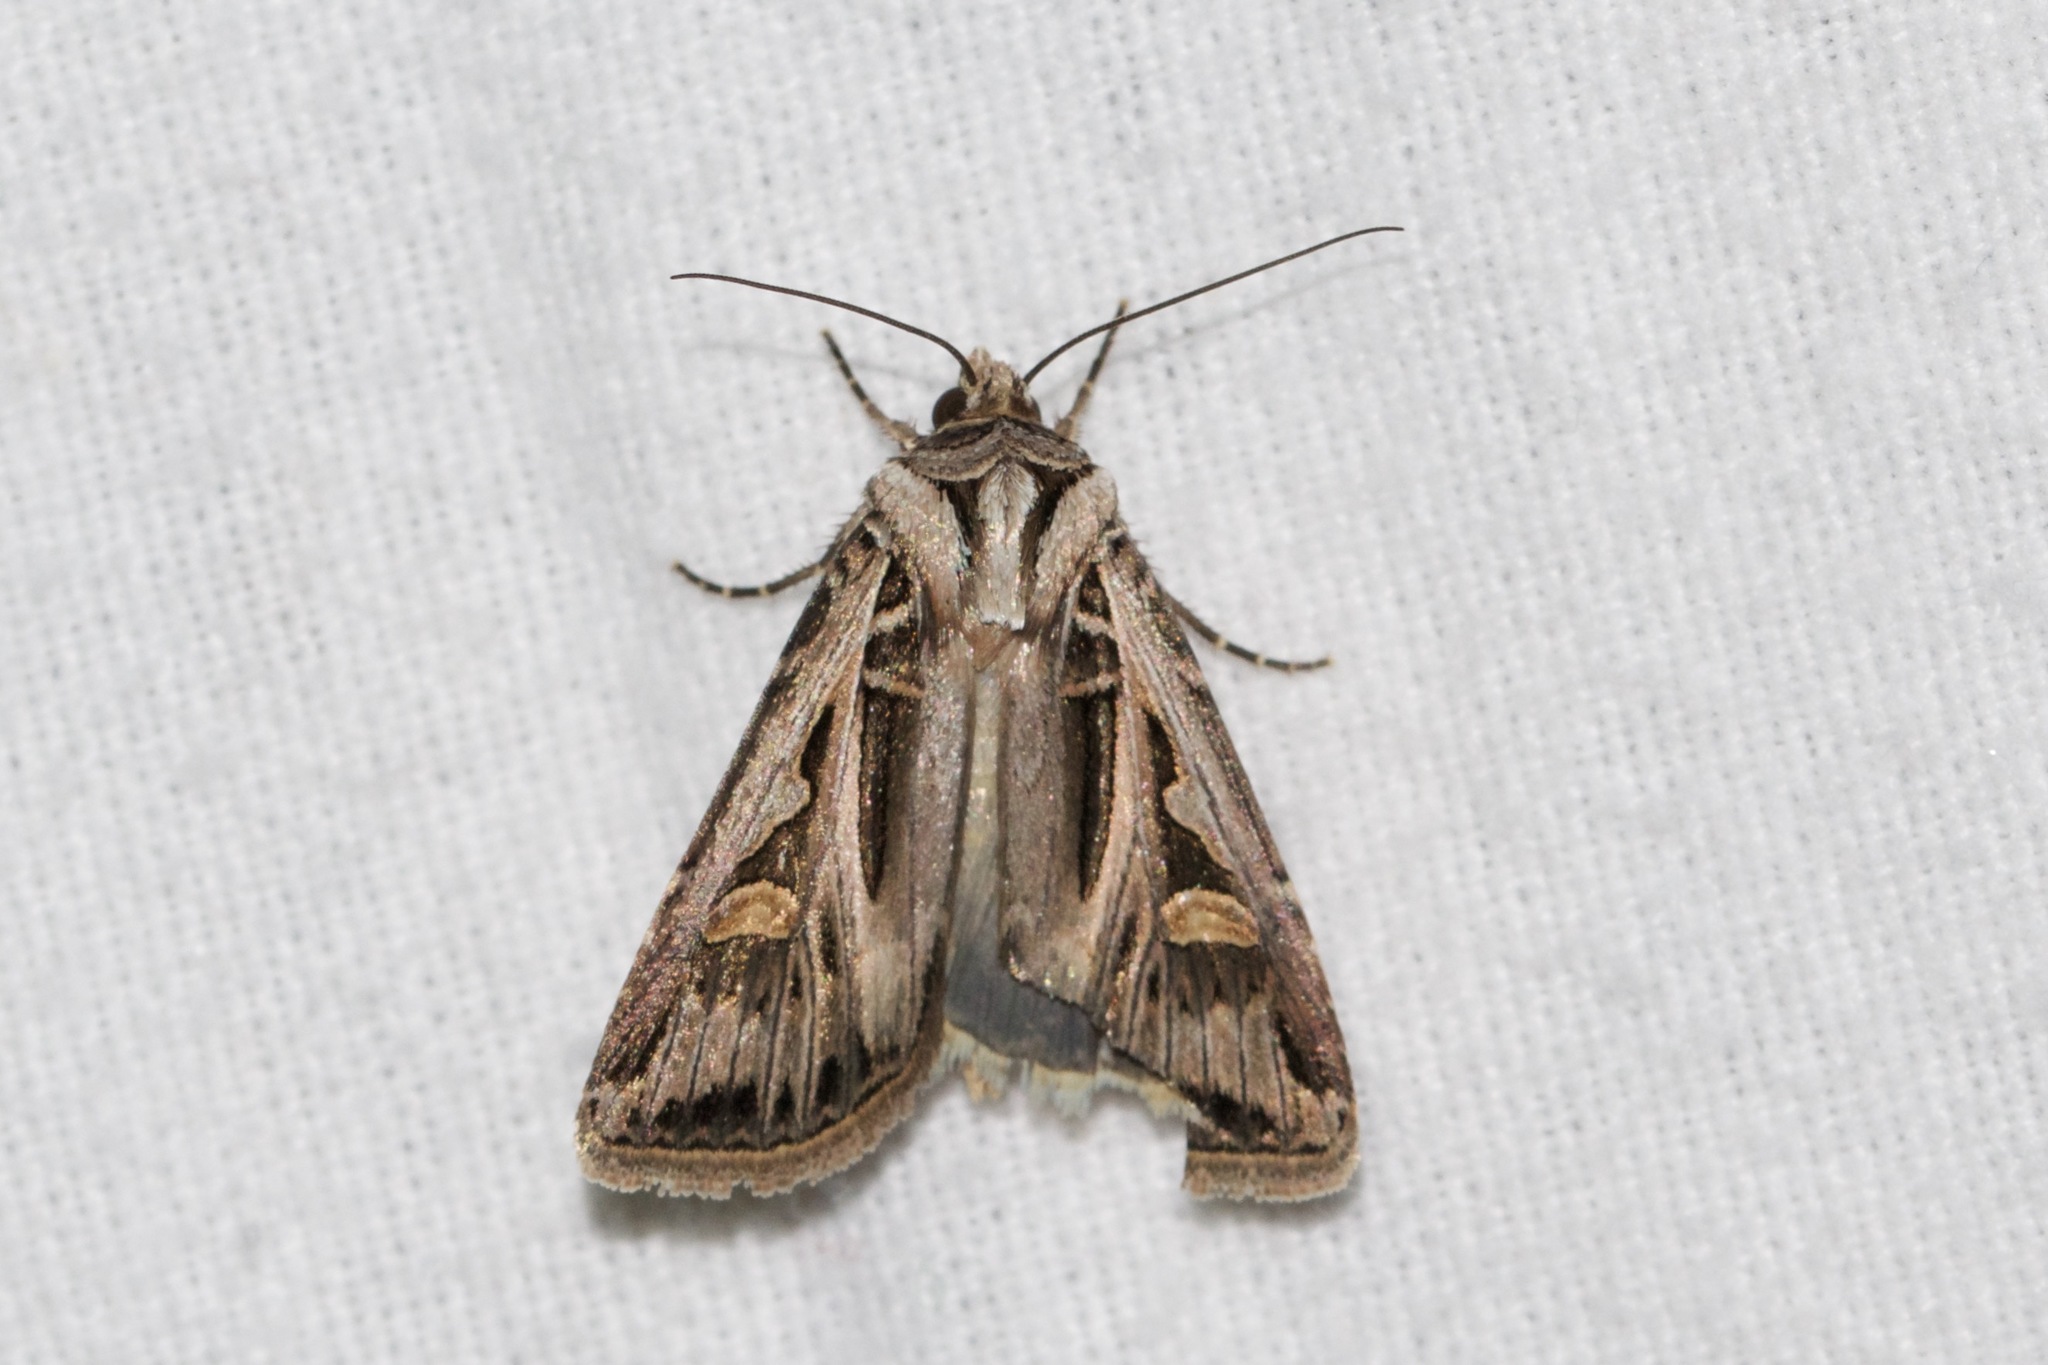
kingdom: Animalia
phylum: Arthropoda
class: Insecta
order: Lepidoptera
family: Noctuidae
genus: Feltia
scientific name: Feltia jaculifera
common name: Dingy cutworm moth
